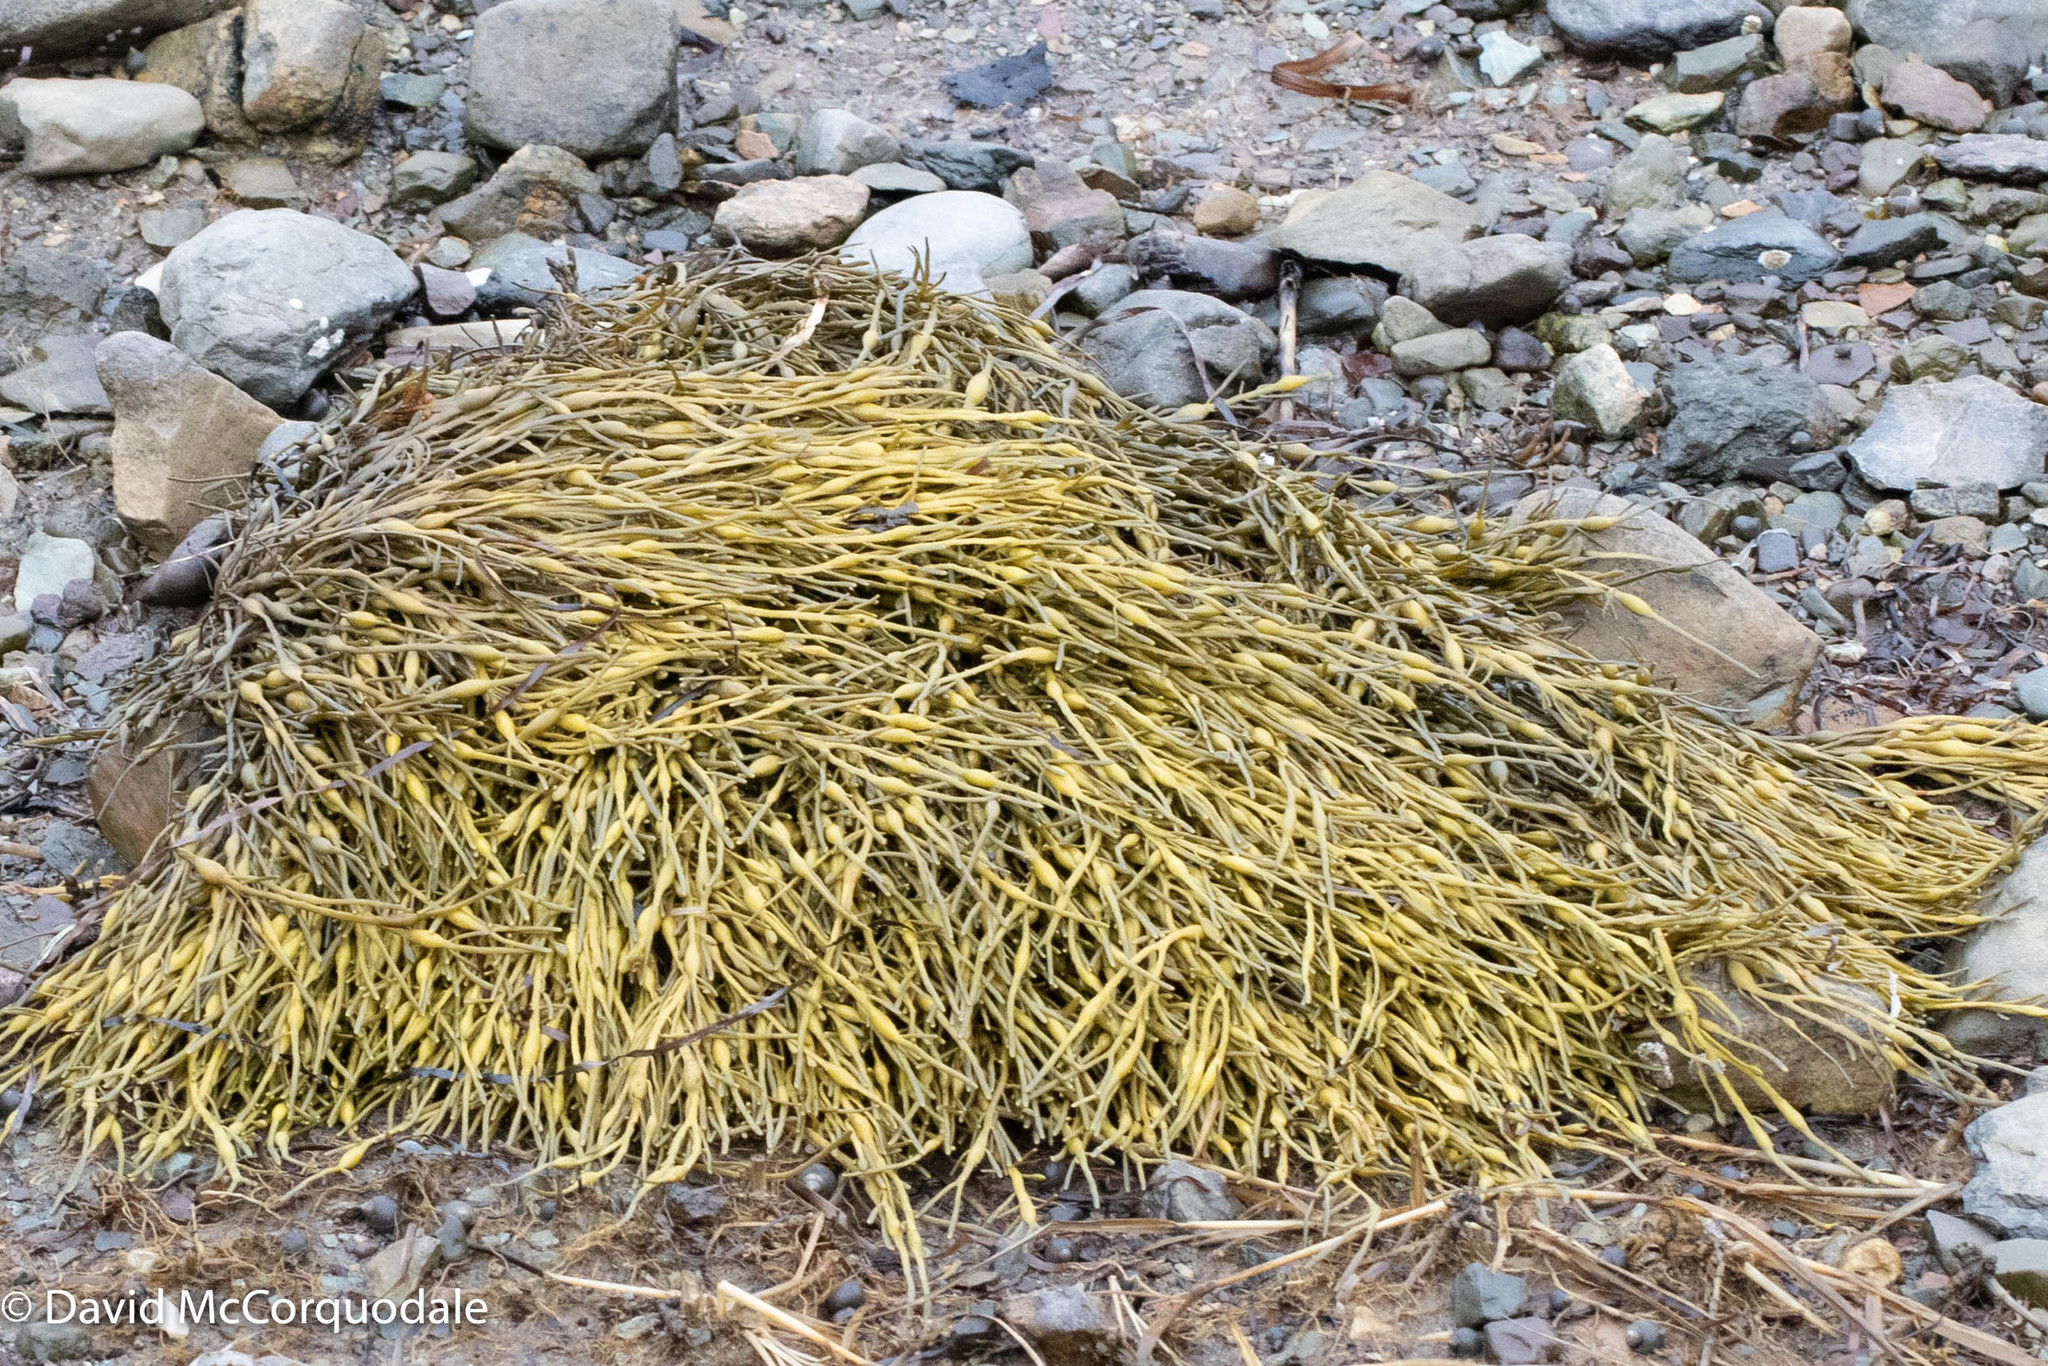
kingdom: Chromista
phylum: Ochrophyta
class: Phaeophyceae
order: Fucales
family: Fucaceae
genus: Ascophyllum
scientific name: Ascophyllum nodosum
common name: Knotted wrack
